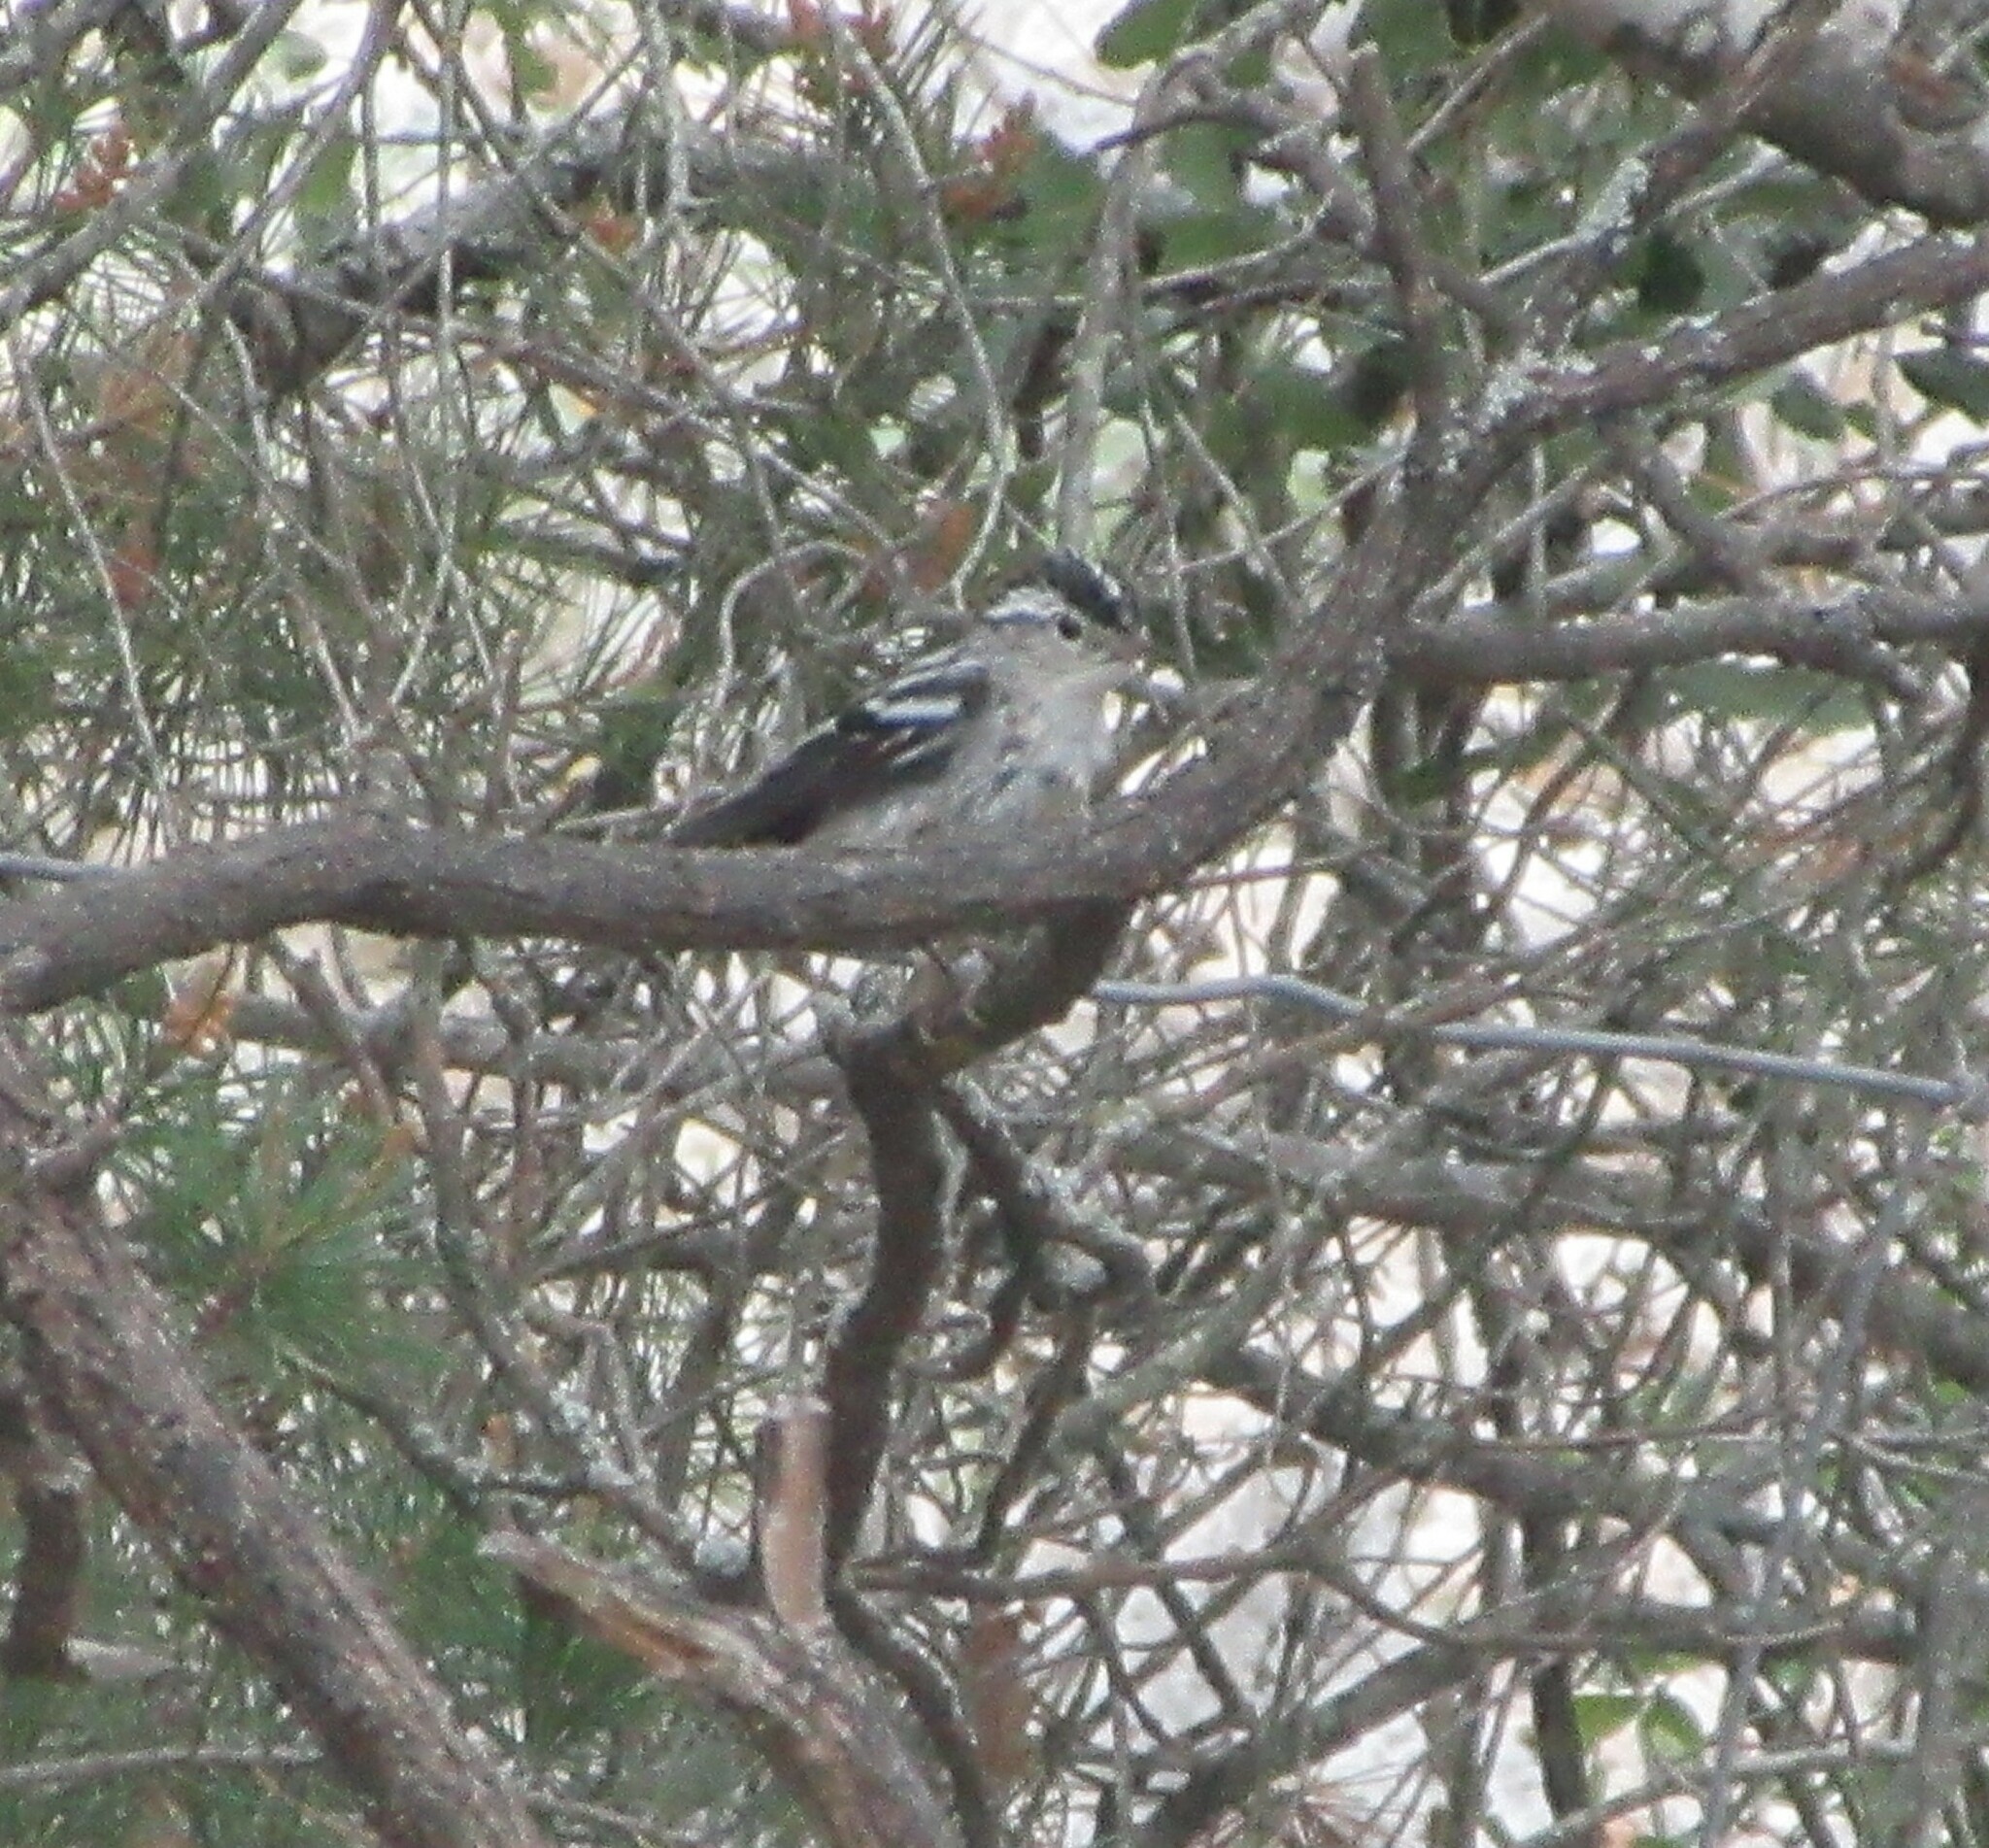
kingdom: Animalia
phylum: Chordata
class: Aves
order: Passeriformes
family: Parulidae
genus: Mniotilta
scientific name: Mniotilta varia
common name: Black-and-white warbler
